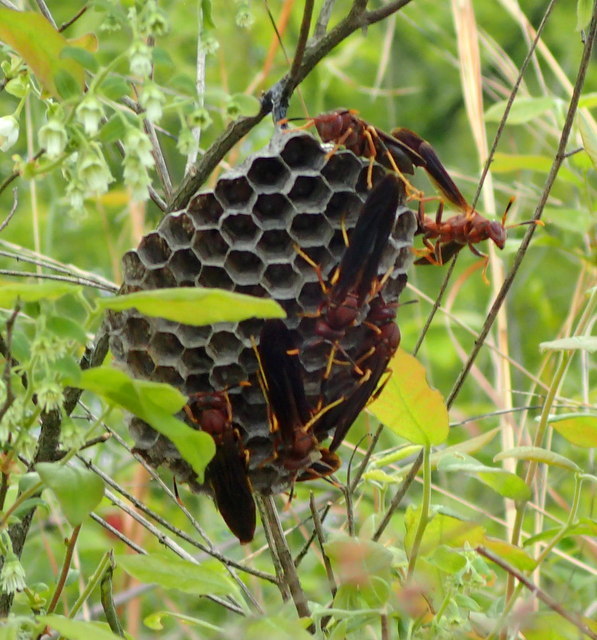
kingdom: Animalia
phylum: Arthropoda
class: Insecta
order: Hymenoptera
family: Eumenidae
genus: Polistes
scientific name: Polistes annularis
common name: Ringed paper wasp
